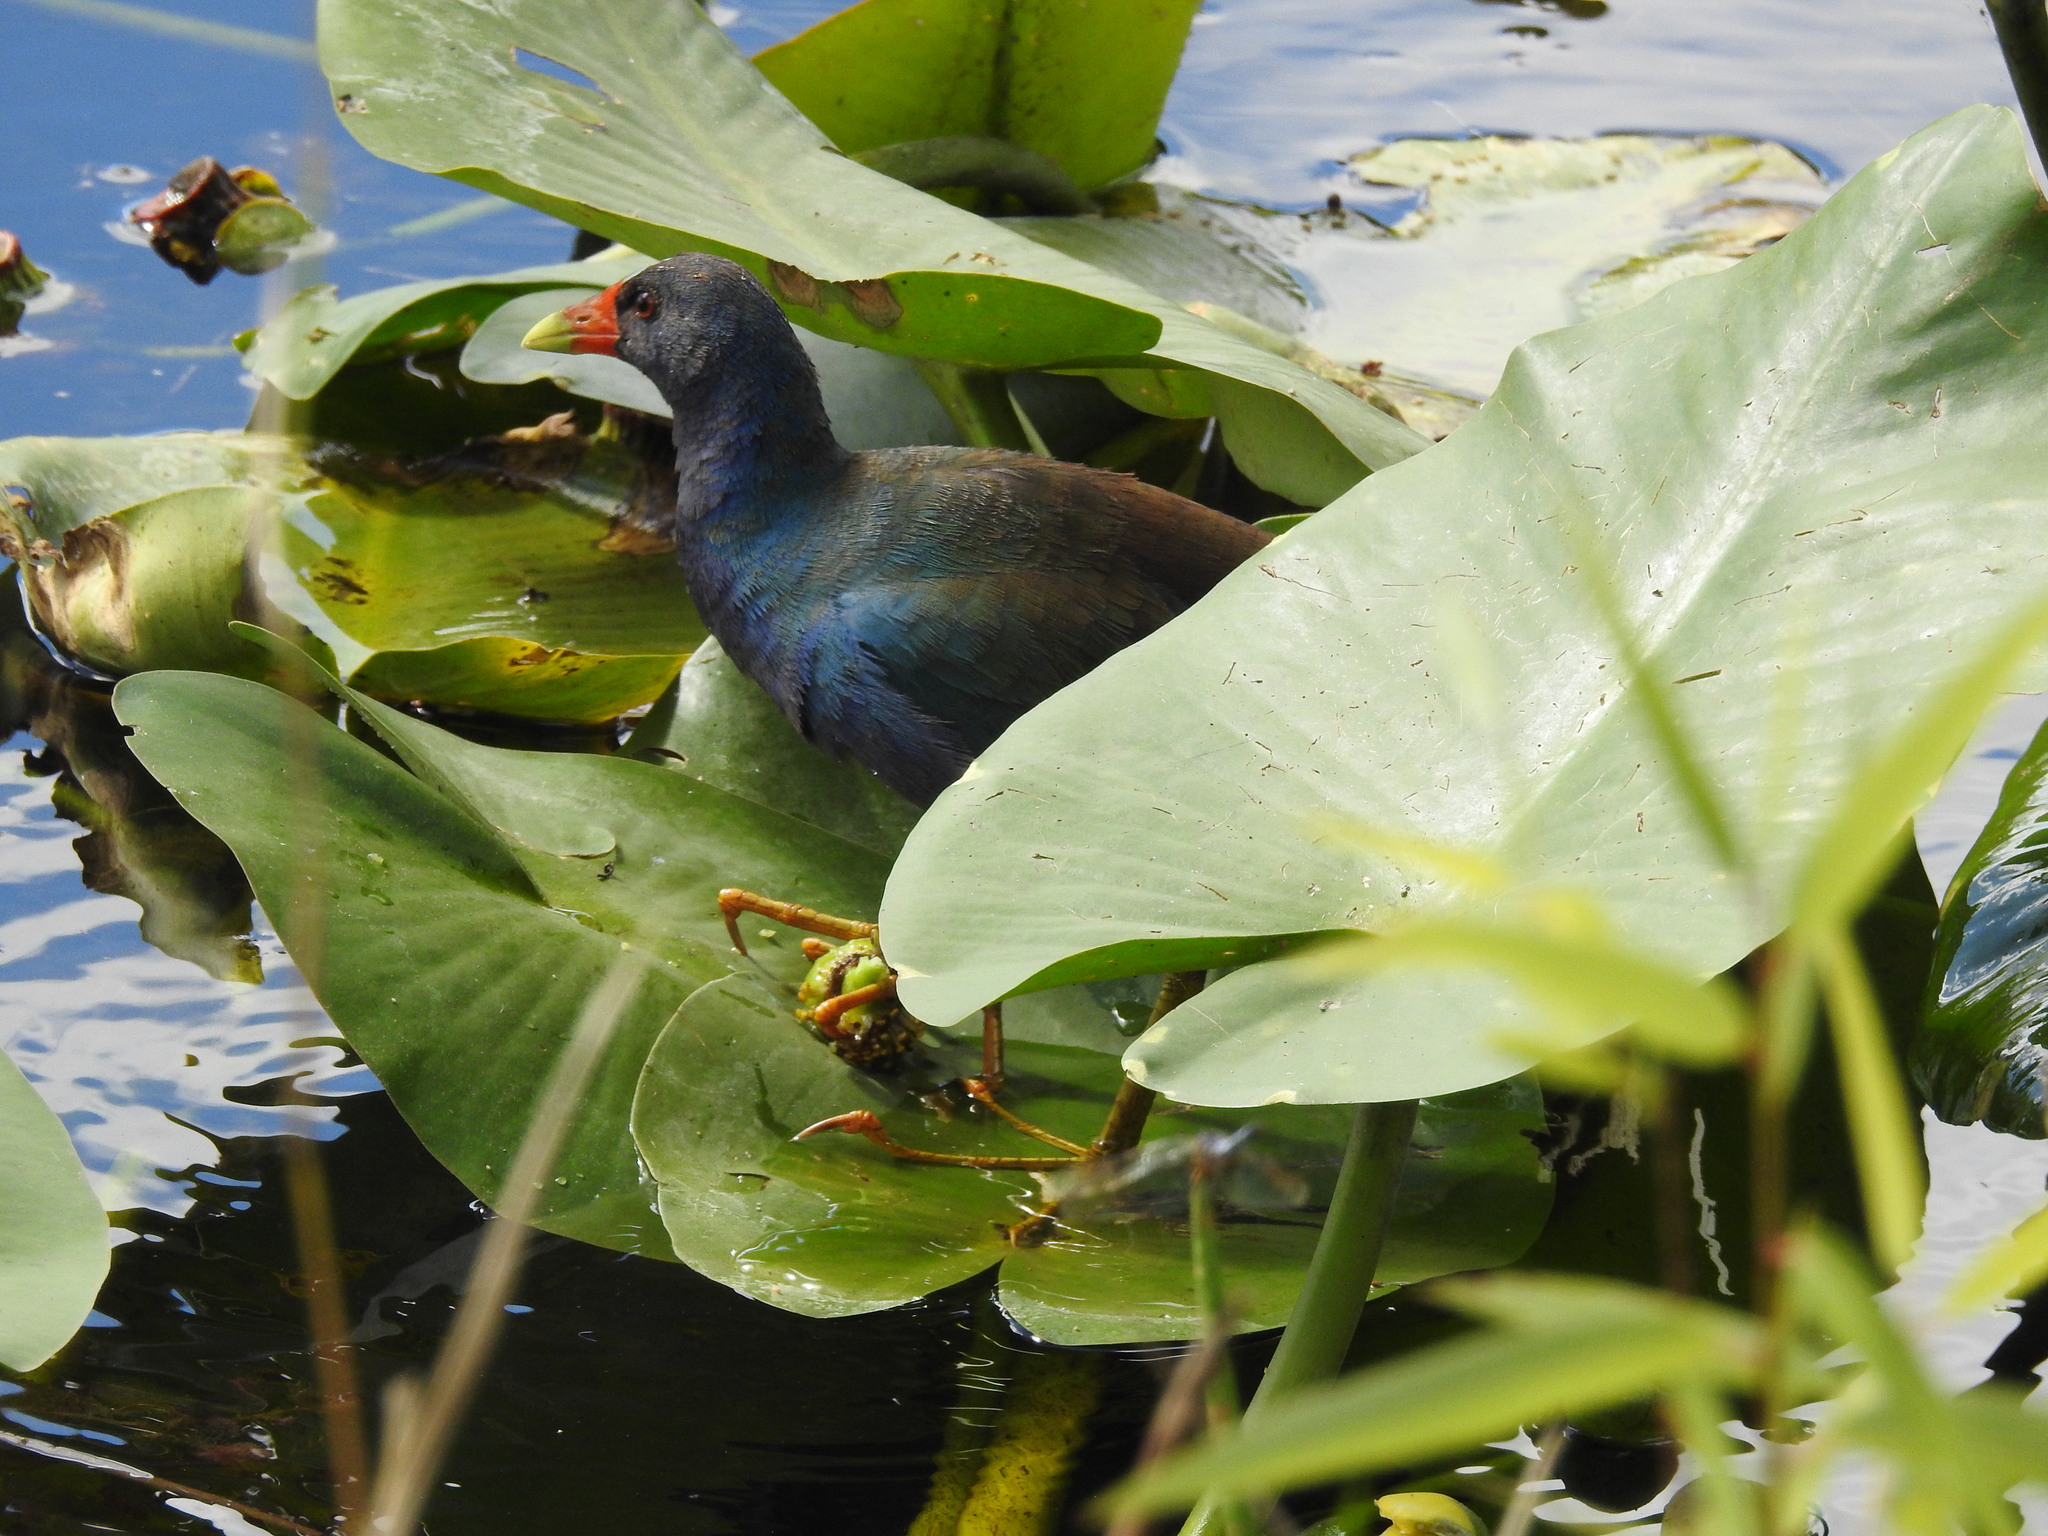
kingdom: Animalia
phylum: Chordata
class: Aves
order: Gruiformes
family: Rallidae
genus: Porphyrio
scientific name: Porphyrio martinica
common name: Purple gallinule
